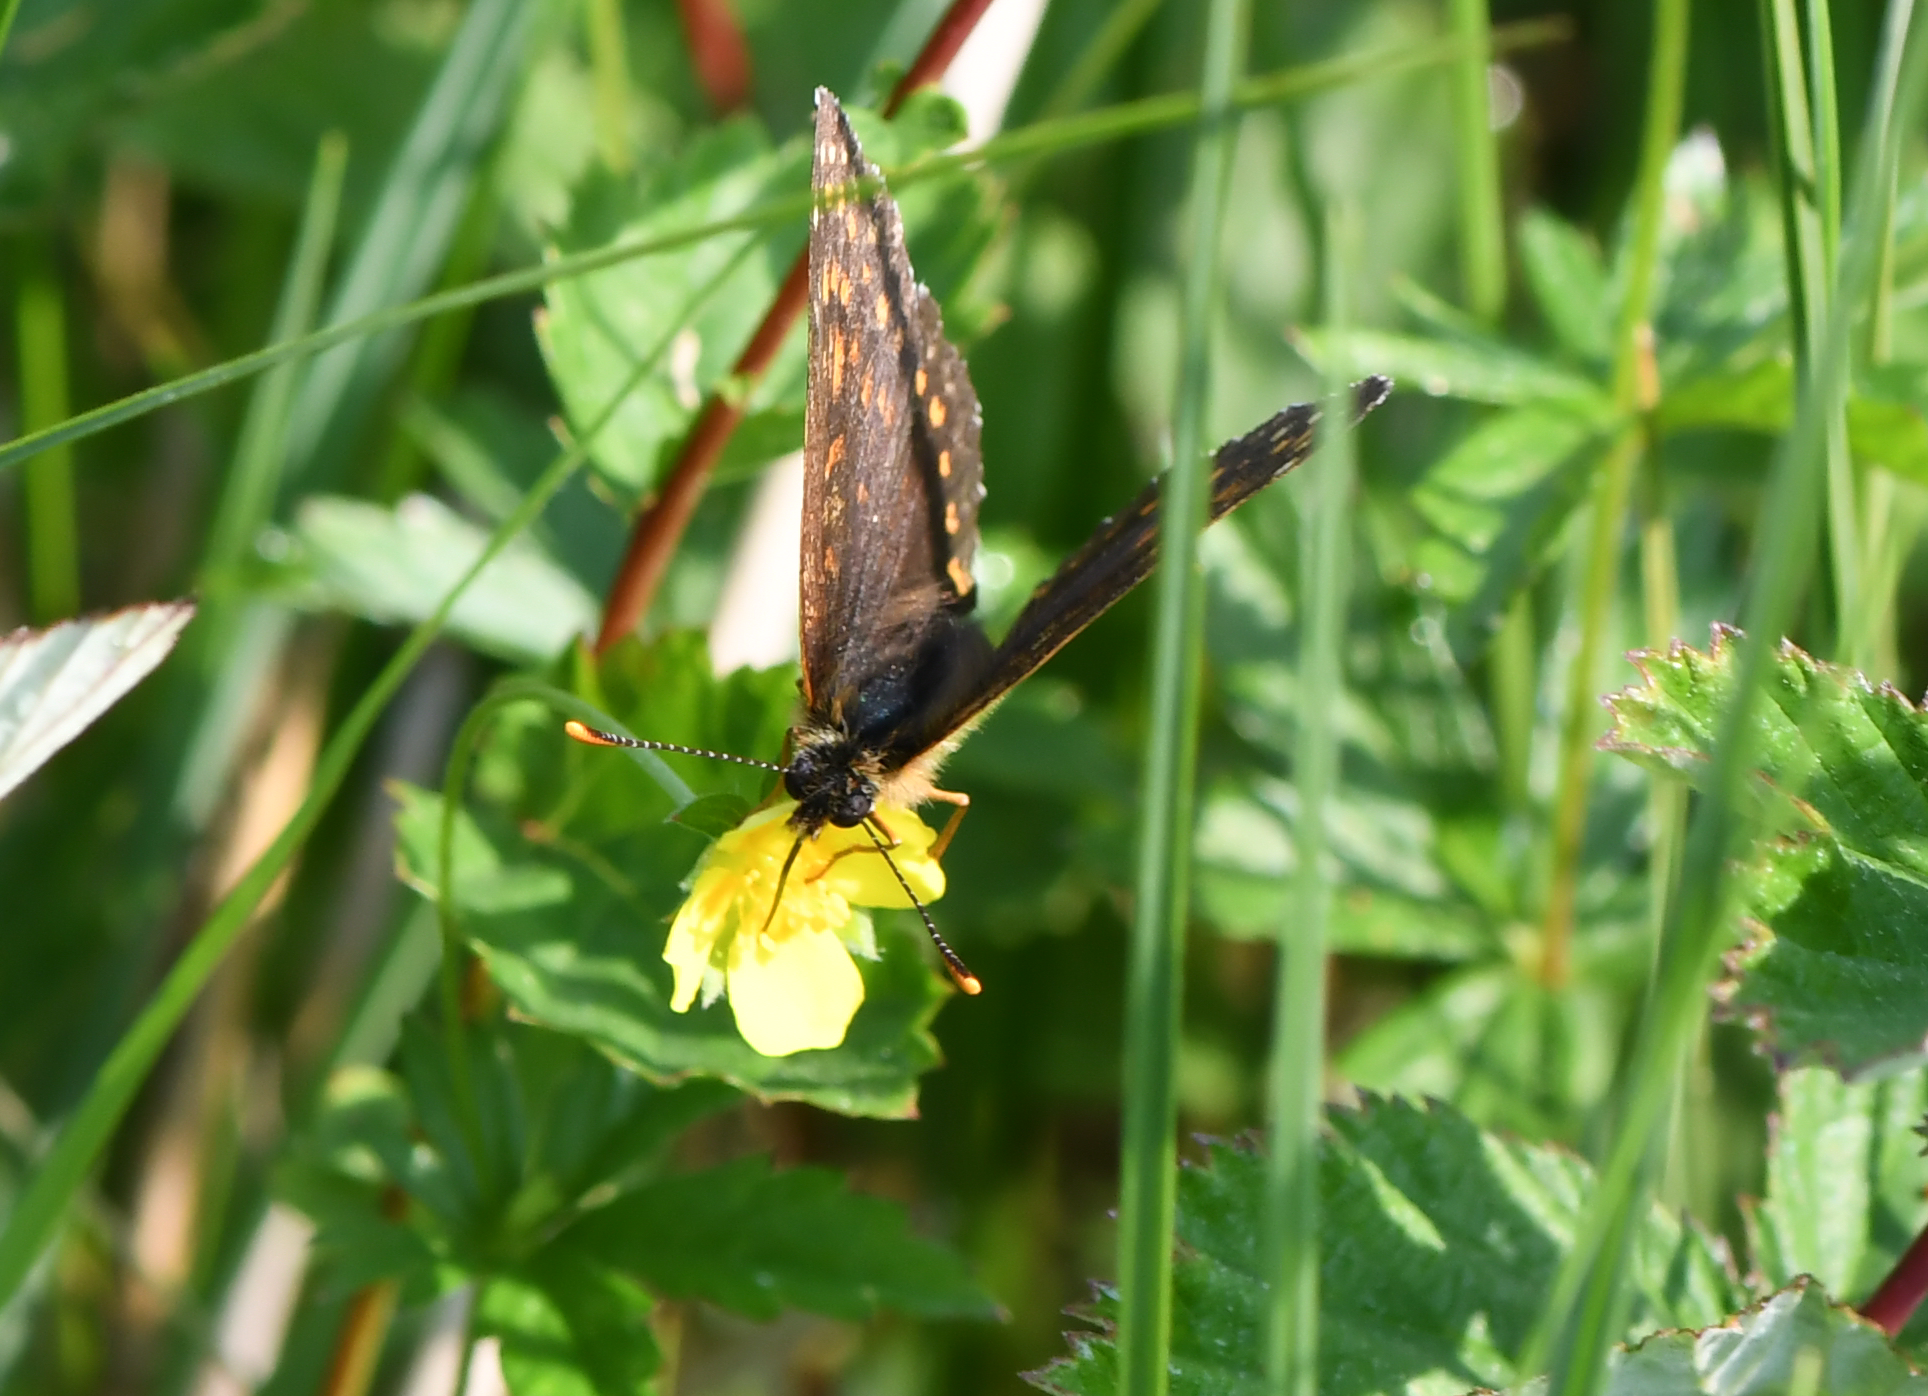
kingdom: Animalia
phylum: Arthropoda
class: Insecta
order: Lepidoptera
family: Nymphalidae
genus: Melitaea
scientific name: Melitaea diamina
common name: False heath fritillary
